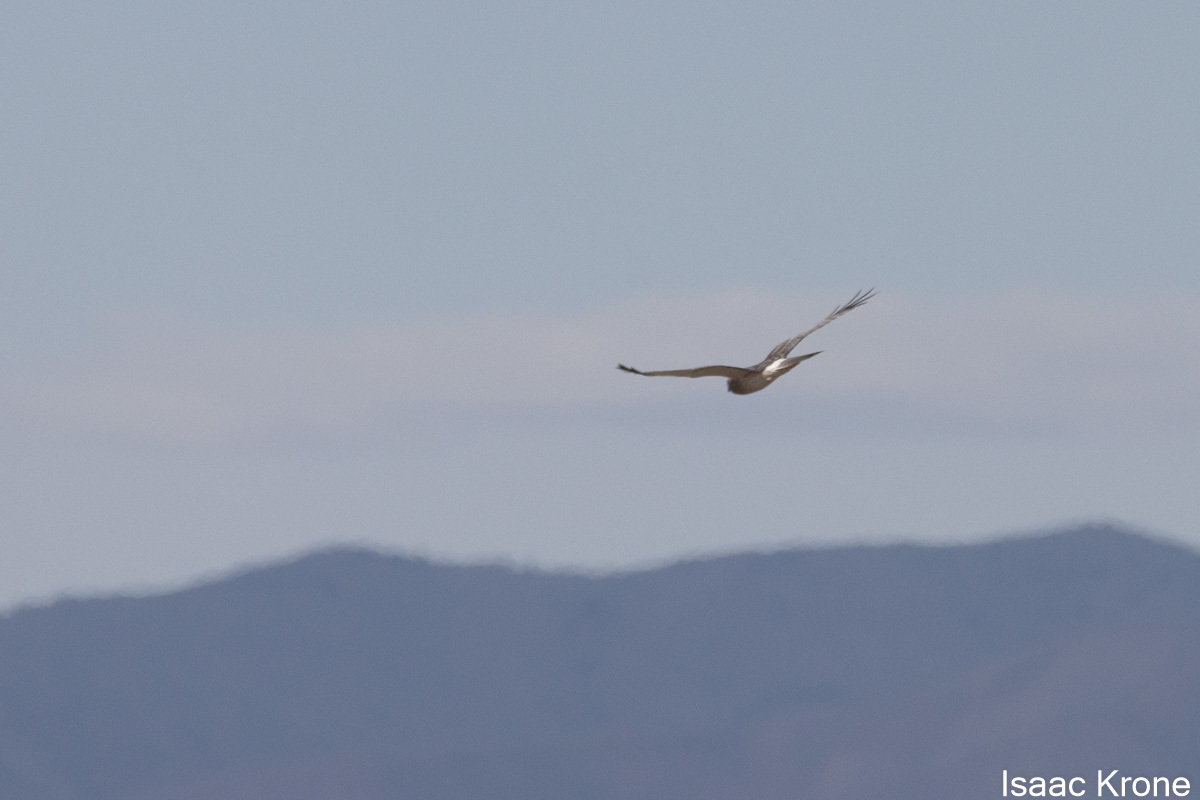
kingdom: Animalia
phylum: Chordata
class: Aves
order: Accipitriformes
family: Accipitridae
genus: Circus
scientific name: Circus cyaneus
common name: Hen harrier
